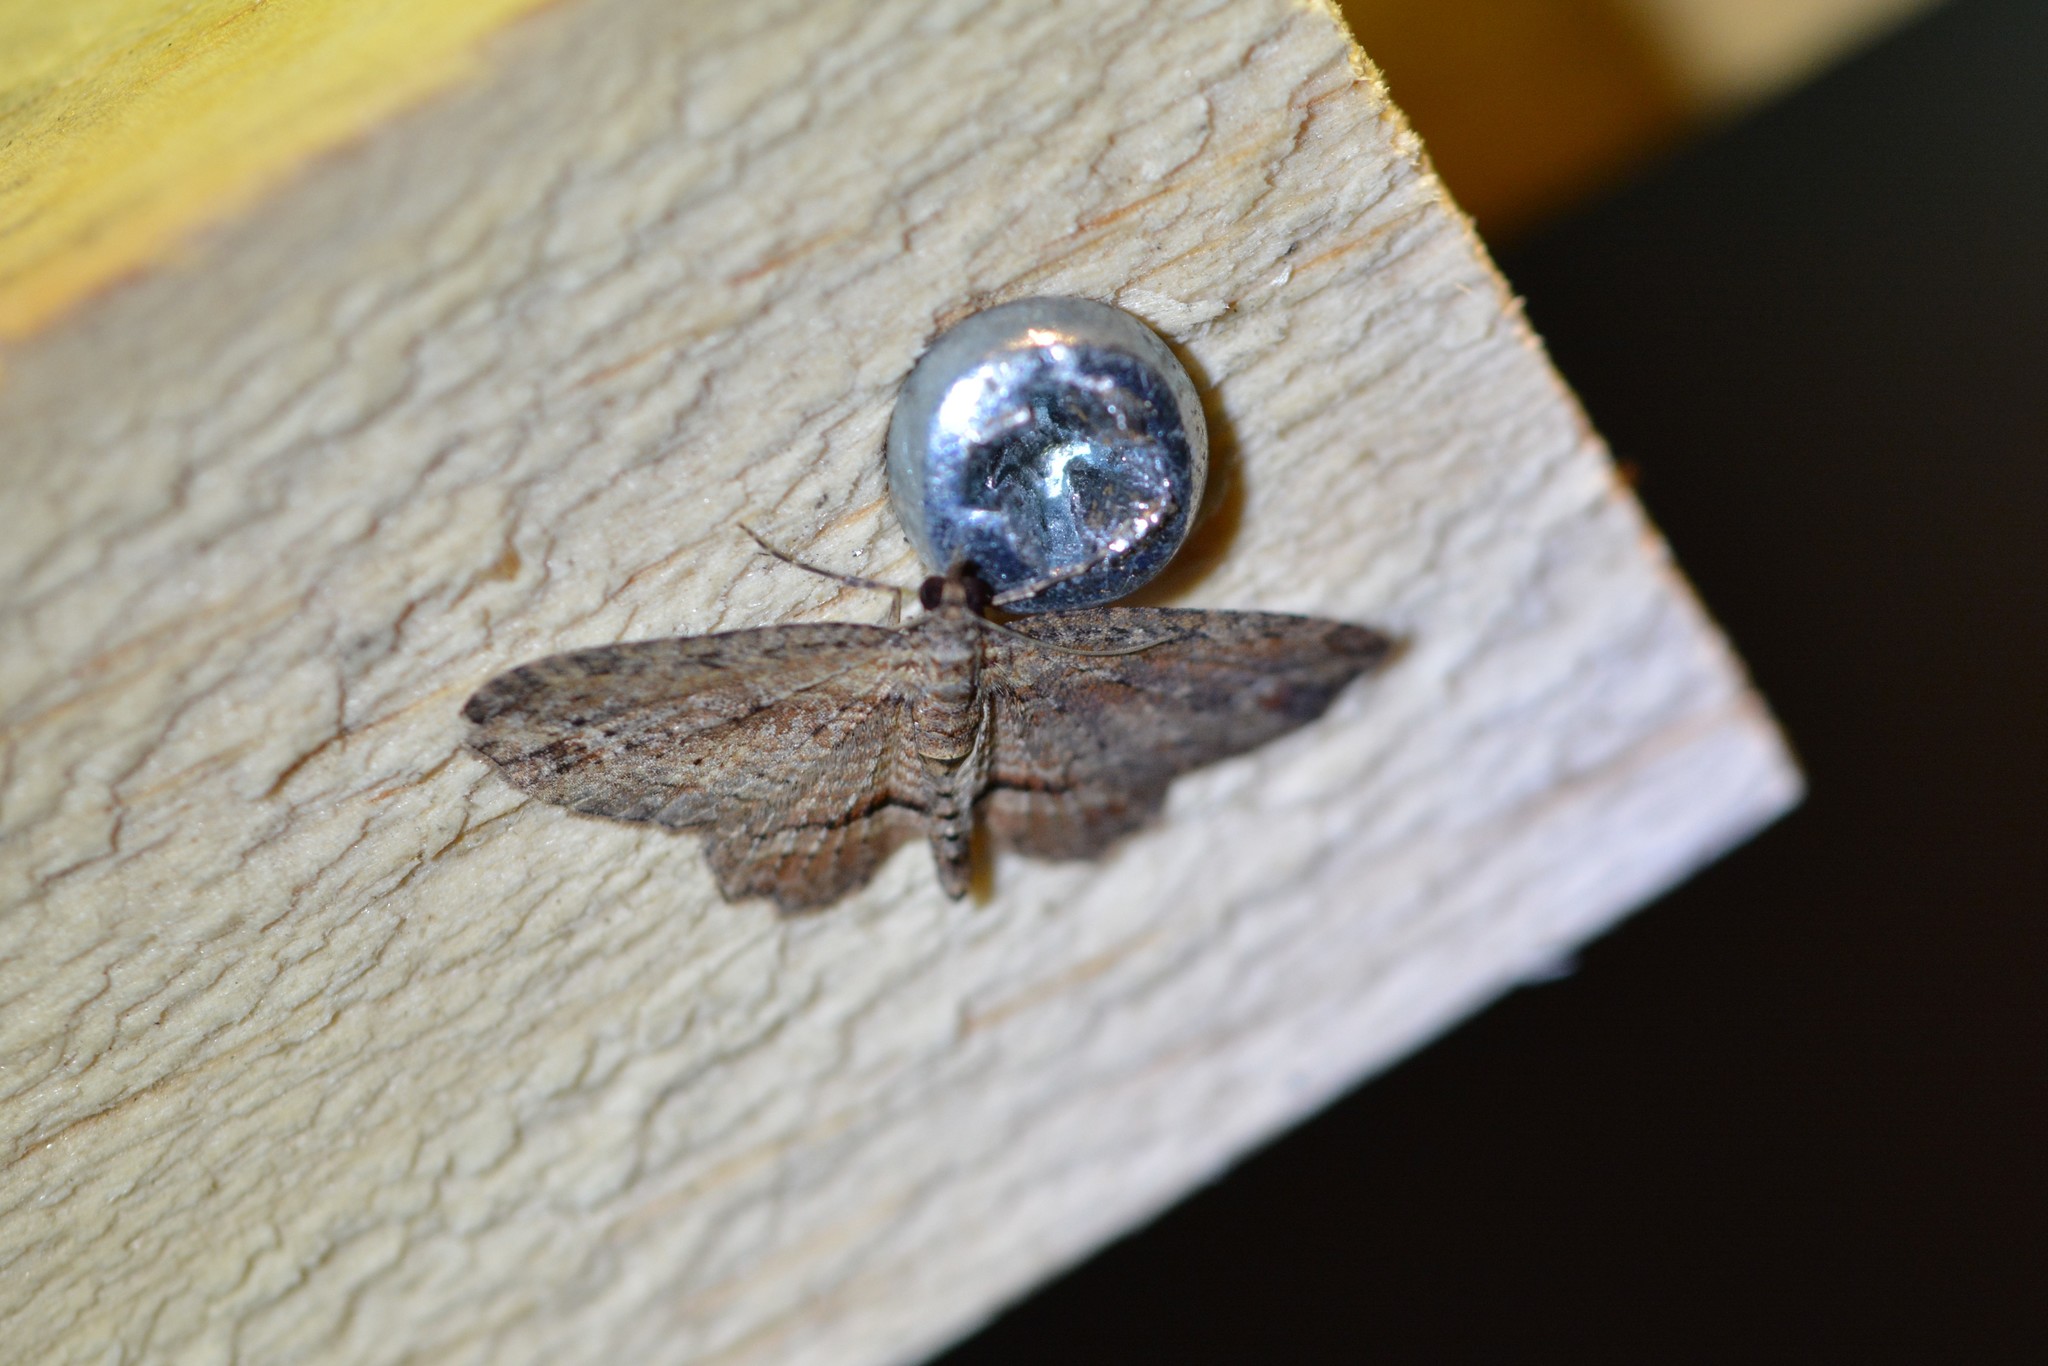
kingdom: Animalia
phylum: Arthropoda
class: Insecta
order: Lepidoptera
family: Geometridae
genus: Chloroclystis
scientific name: Chloroclystis filata
